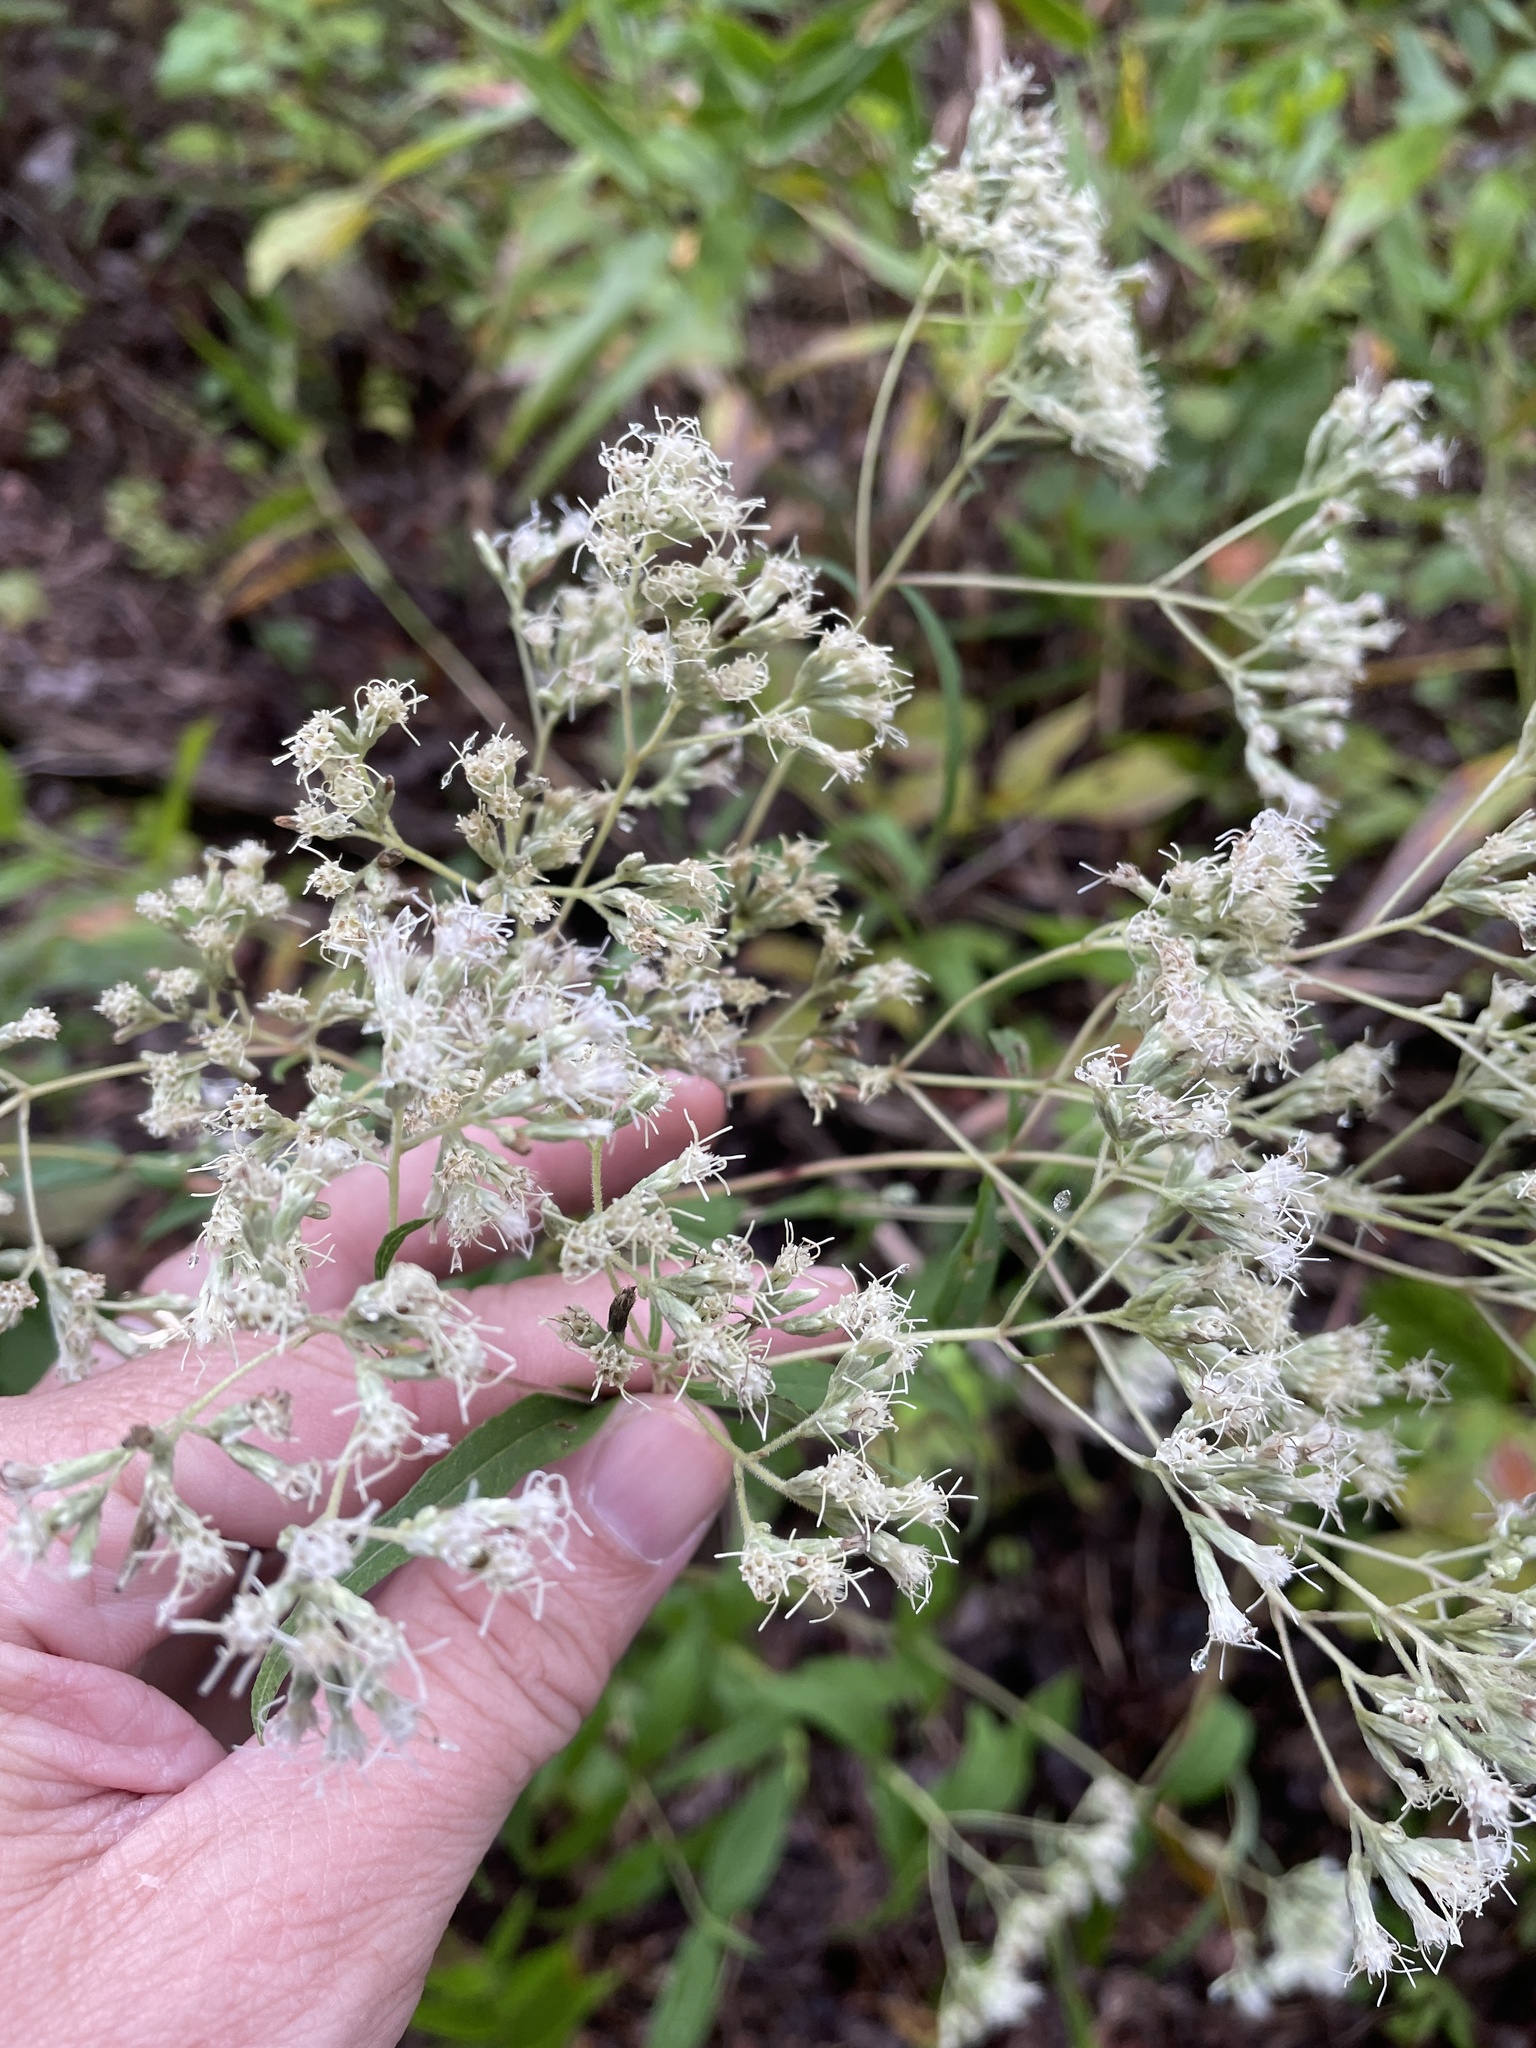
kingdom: Plantae
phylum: Tracheophyta
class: Magnoliopsida
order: Asterales
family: Asteraceae
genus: Eupatorium
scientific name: Eupatorium sessilifolium
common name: Upland boneset
